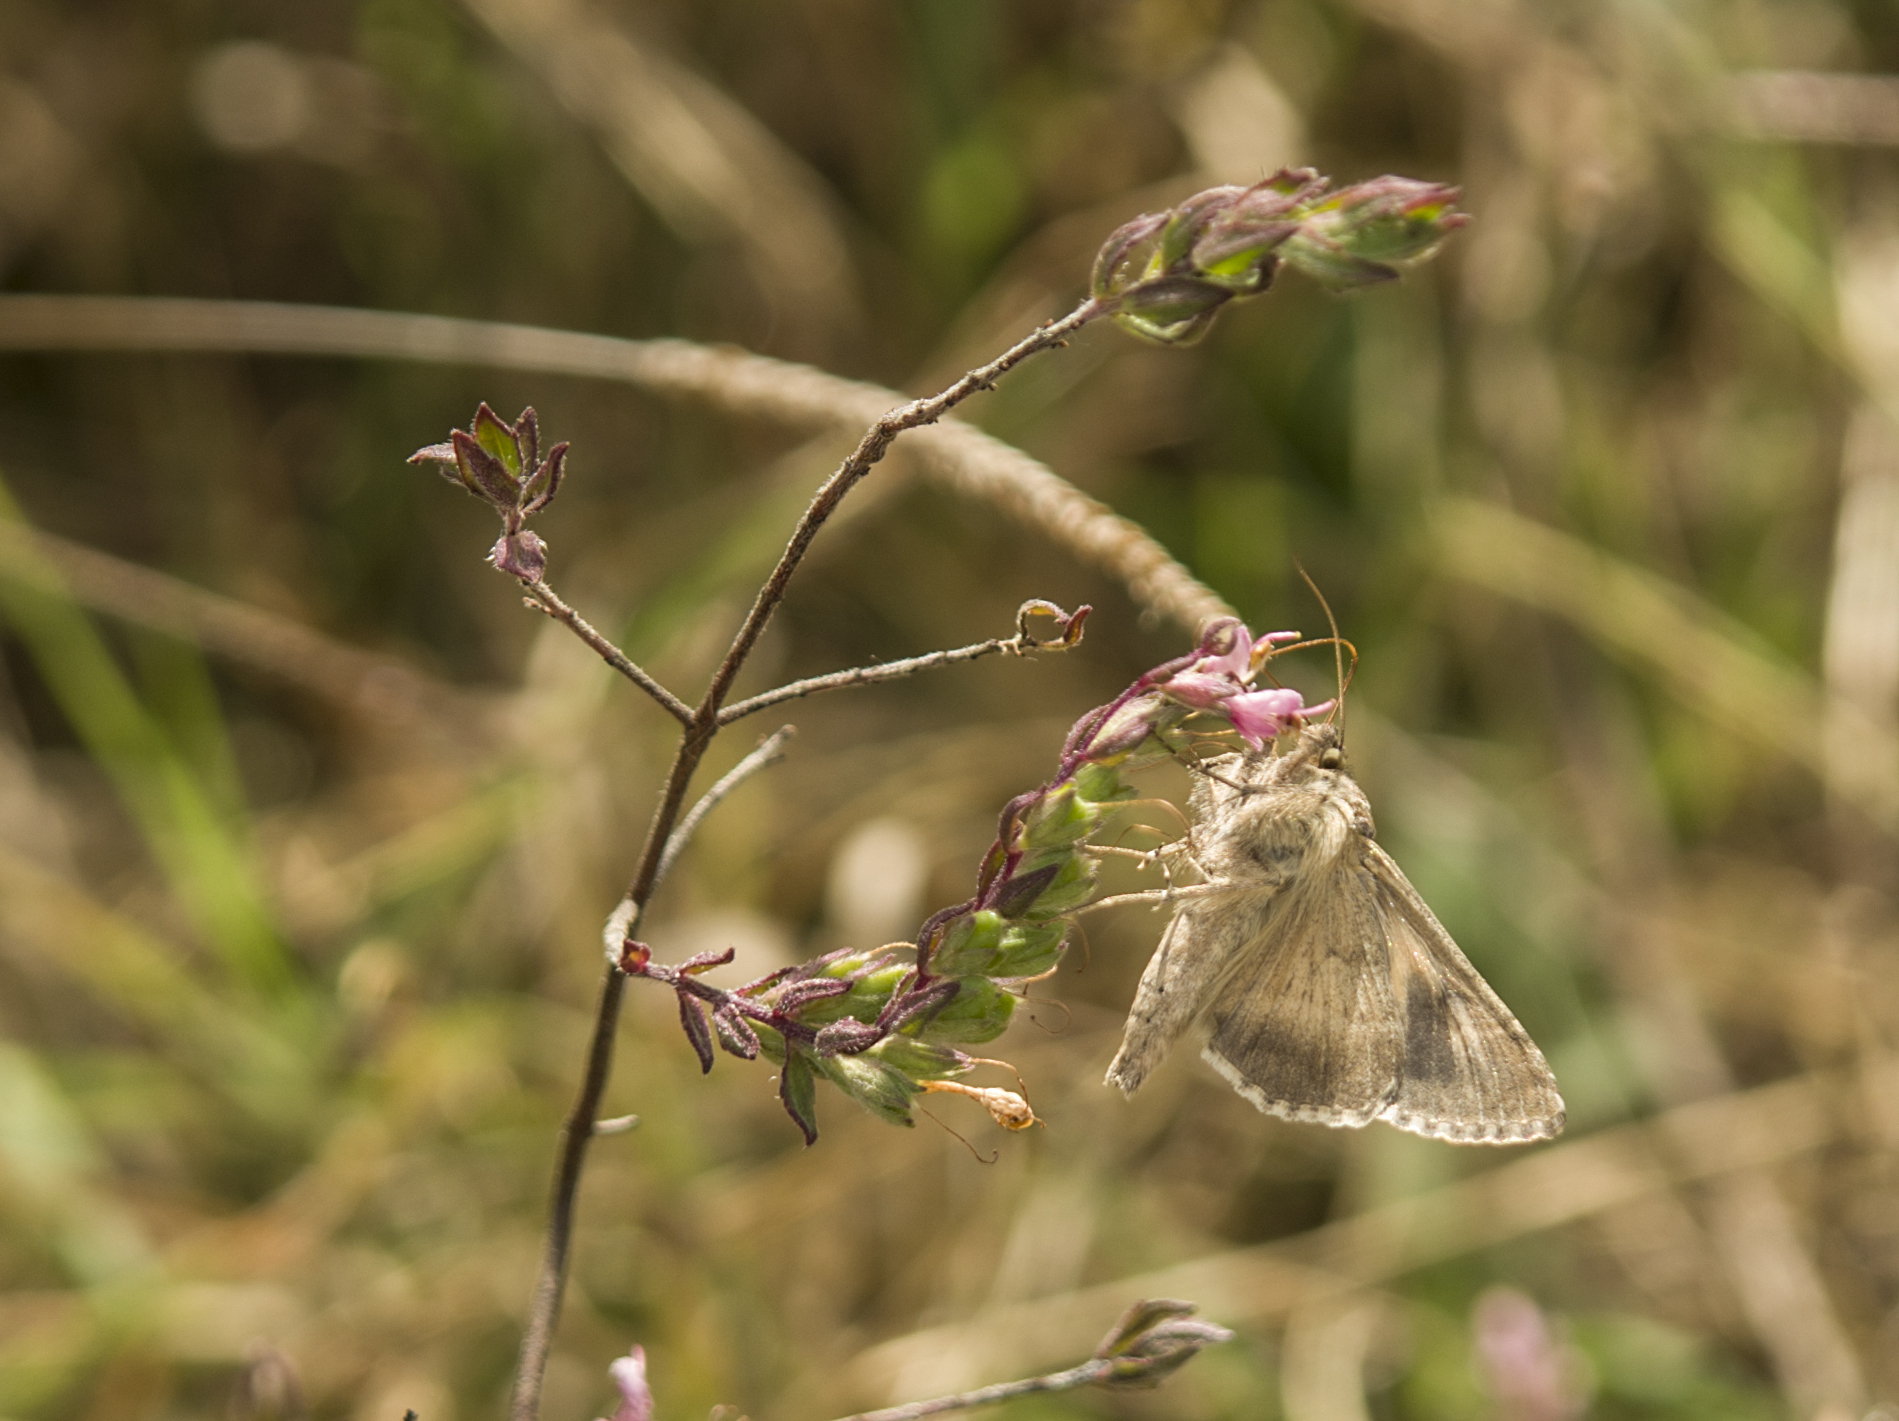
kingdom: Animalia
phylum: Arthropoda
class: Insecta
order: Lepidoptera
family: Noctuidae
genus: Autographa
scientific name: Autographa gamma
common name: Silver y
